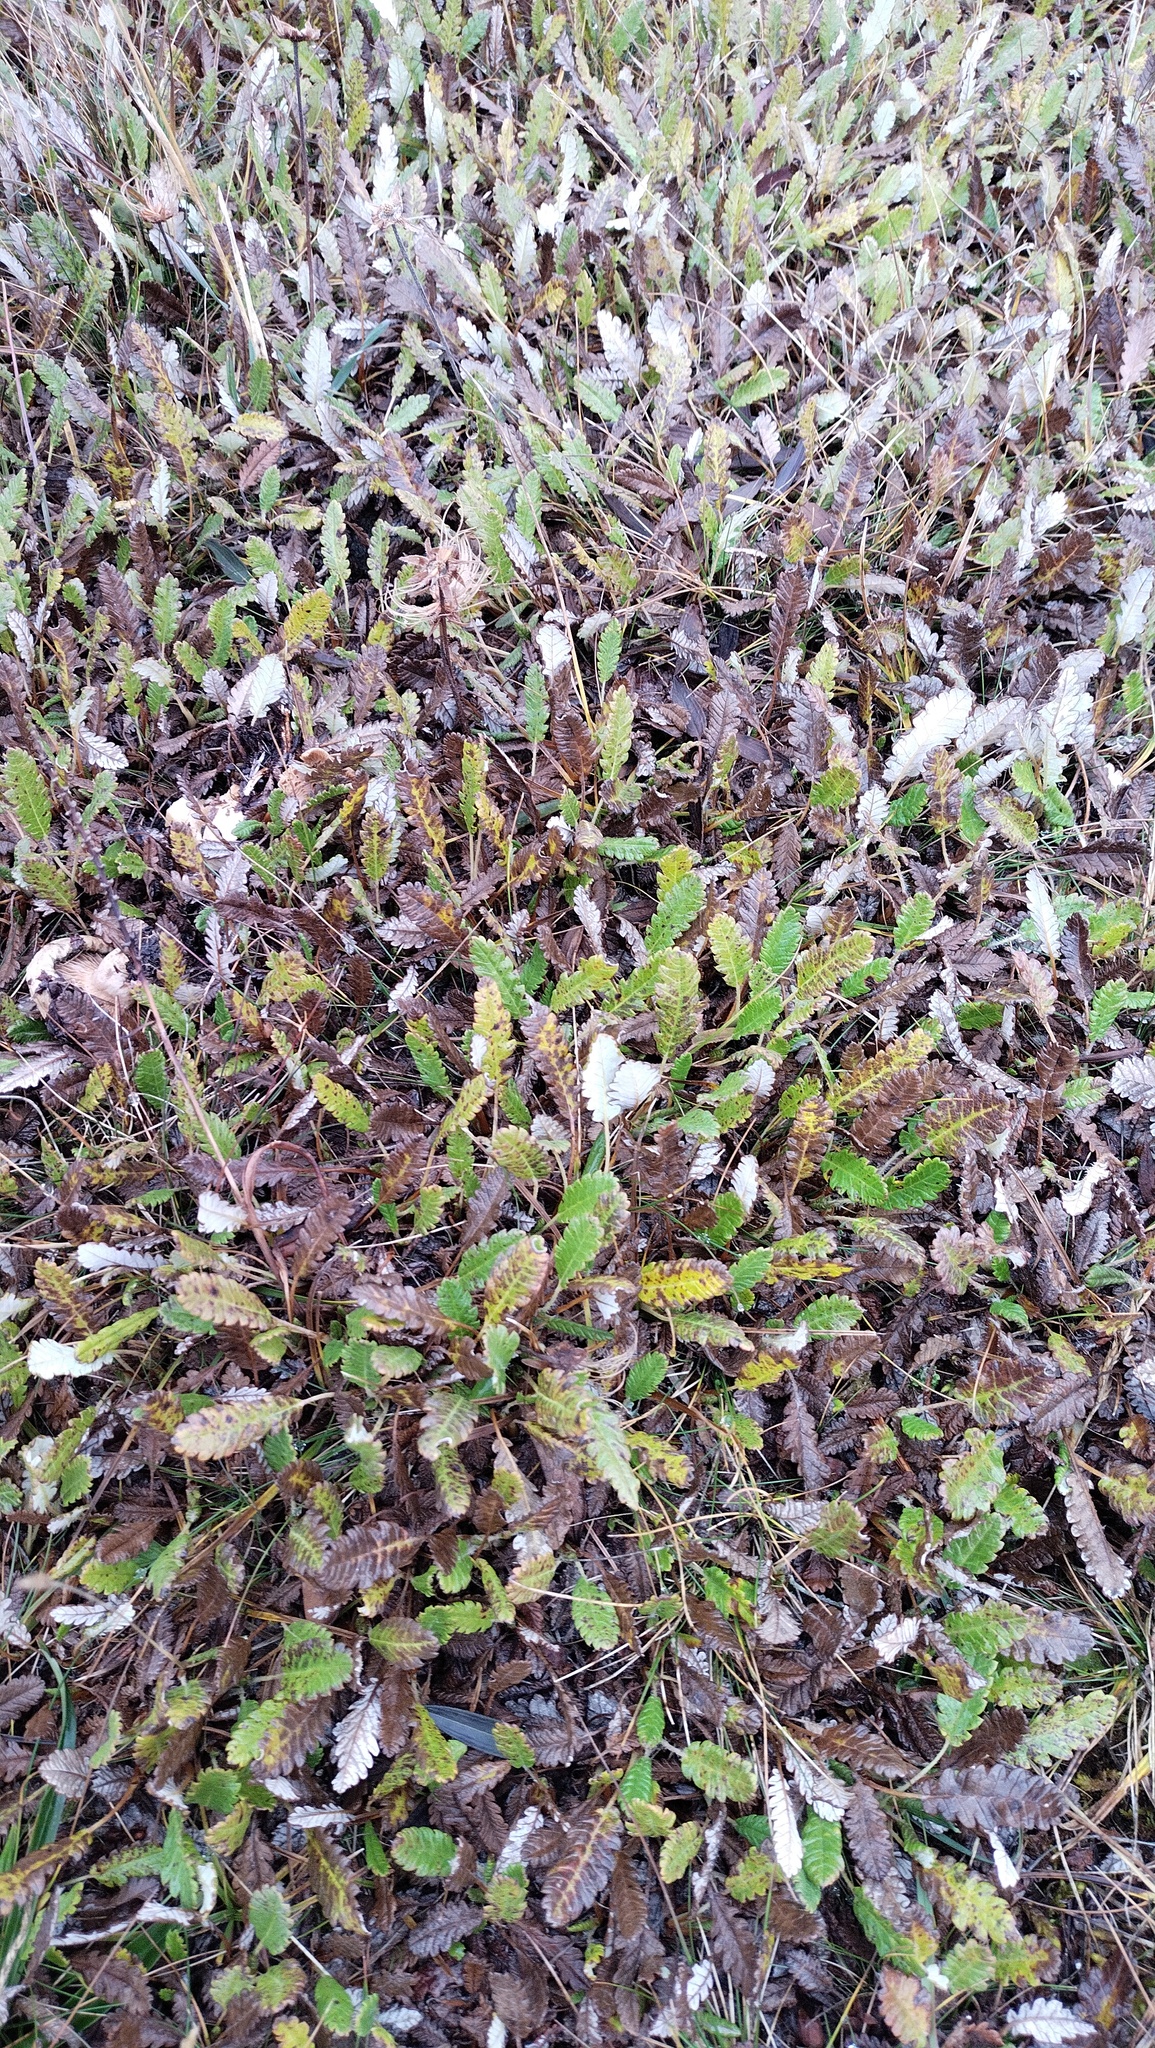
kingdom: Plantae
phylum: Tracheophyta
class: Magnoliopsida
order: Rosales
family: Rosaceae
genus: Dryas
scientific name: Dryas octopetala
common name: Eight-petal mountain-avens
